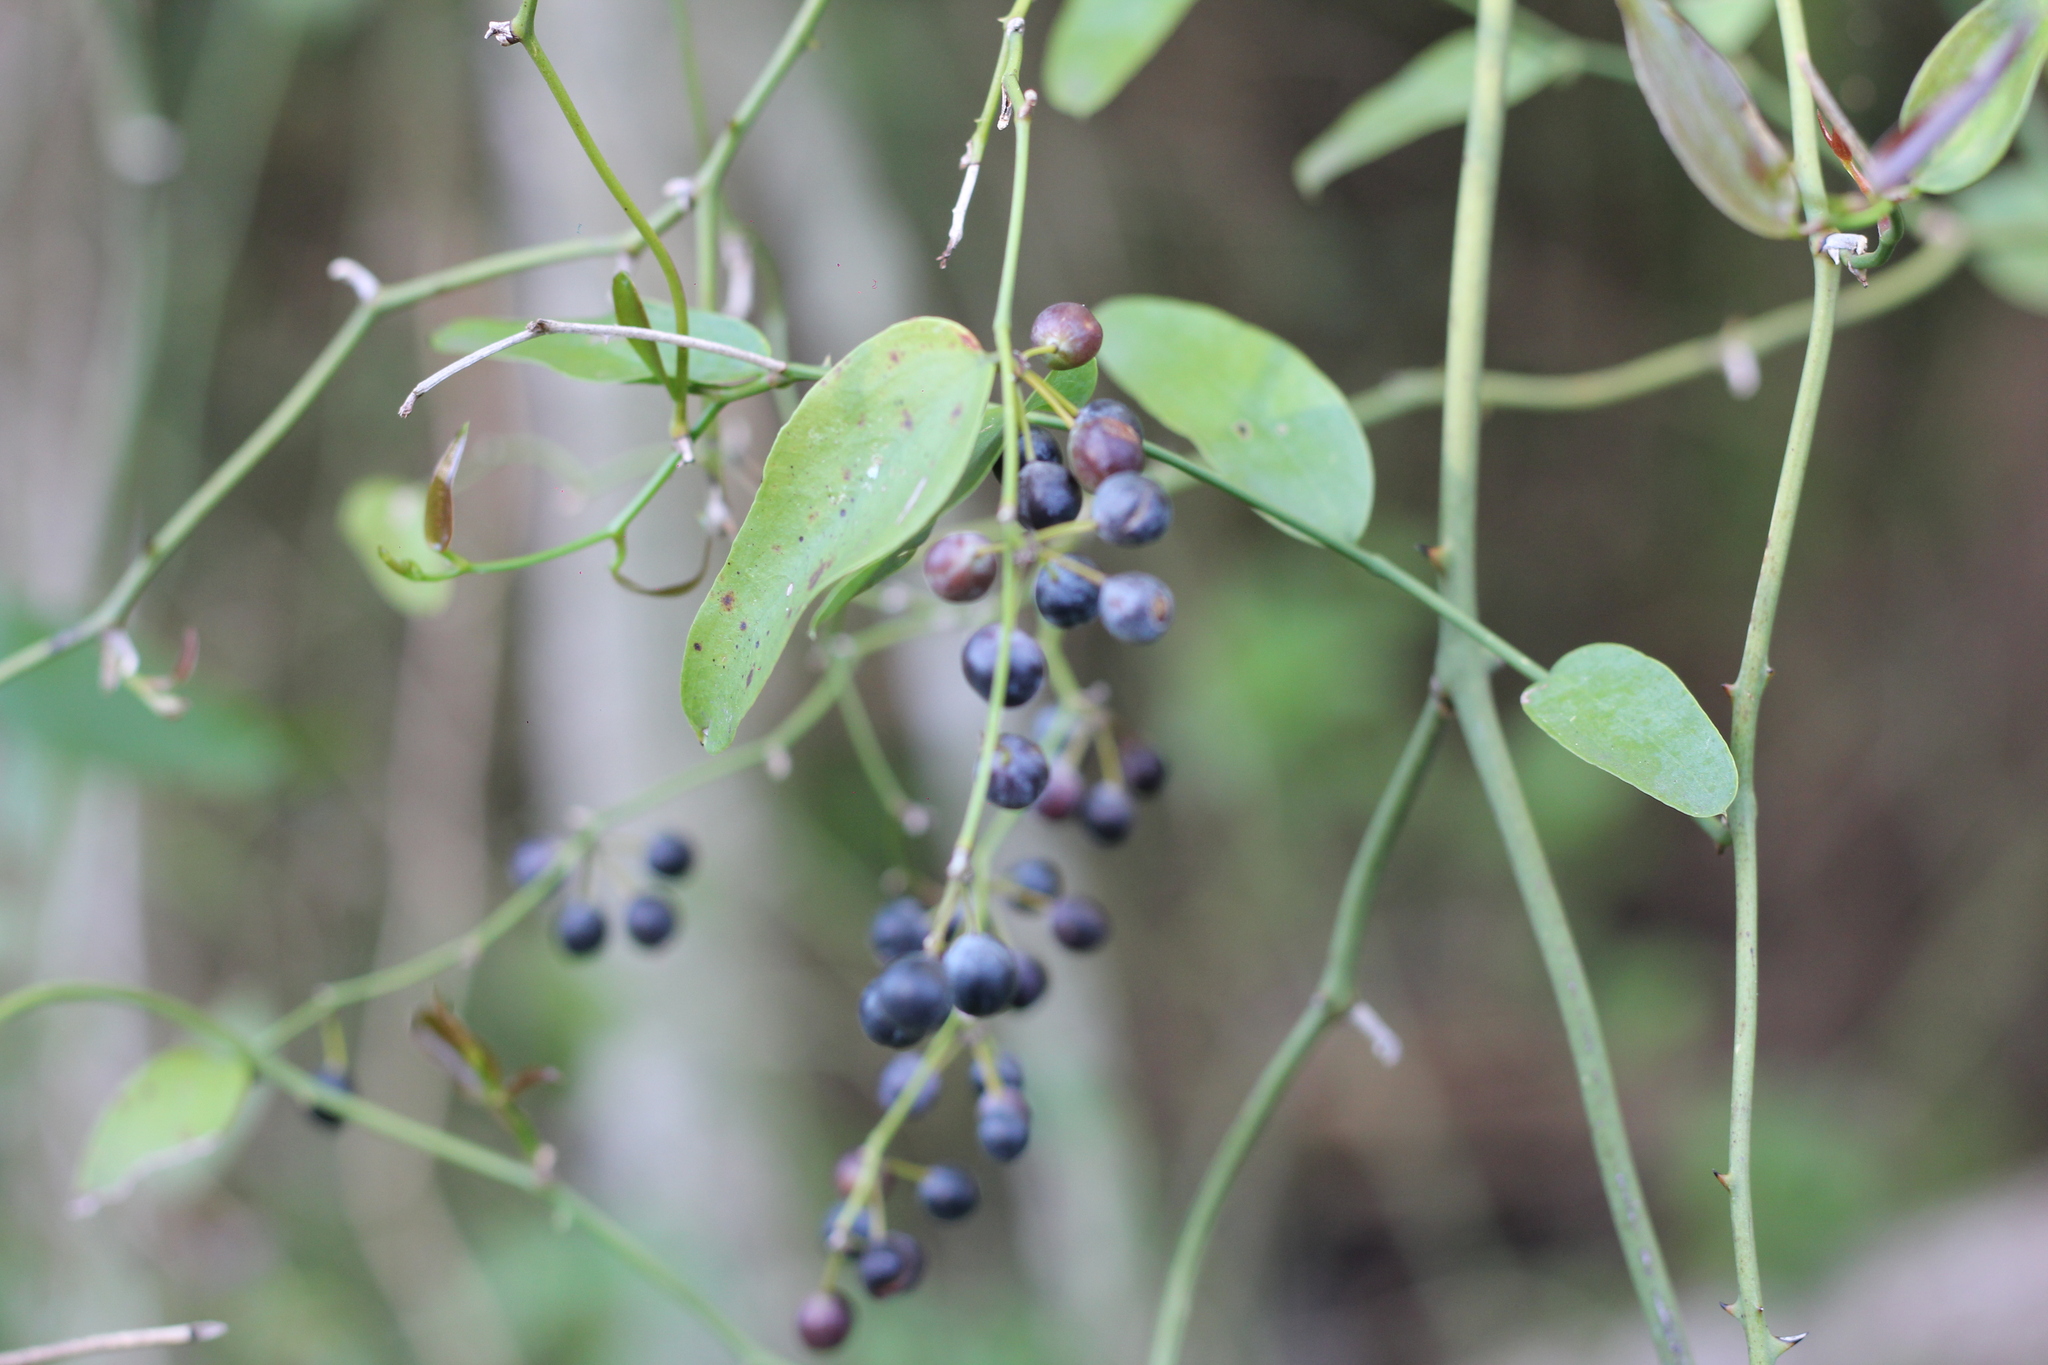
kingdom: Plantae
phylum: Tracheophyta
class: Liliopsida
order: Liliales
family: Smilacaceae
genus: Smilax
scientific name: Smilax campestris
